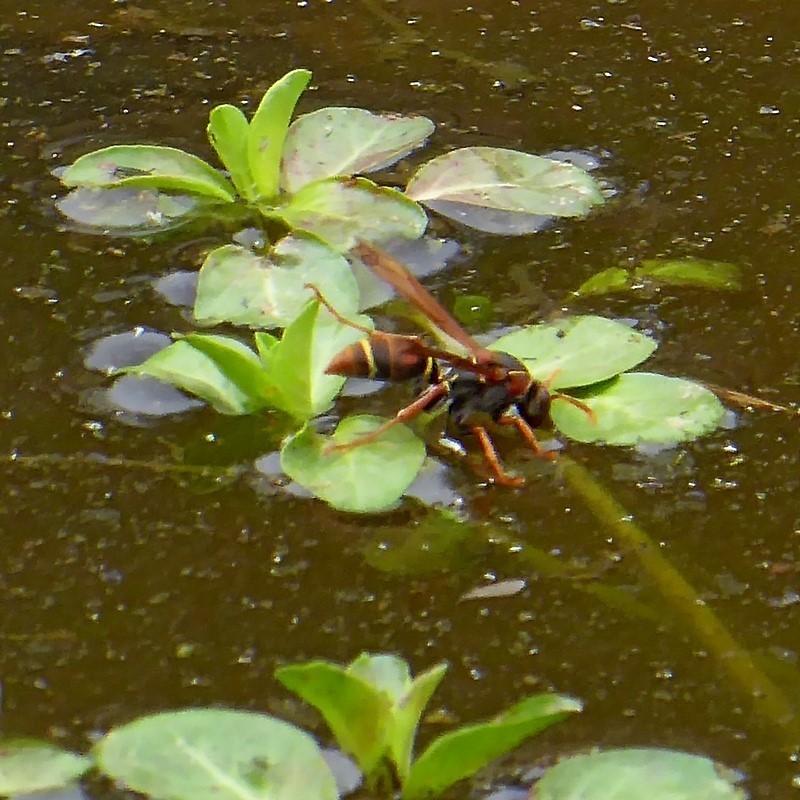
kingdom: Animalia
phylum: Arthropoda
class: Insecta
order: Hymenoptera
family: Eumenidae
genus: Polistes
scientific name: Polistes humilis
